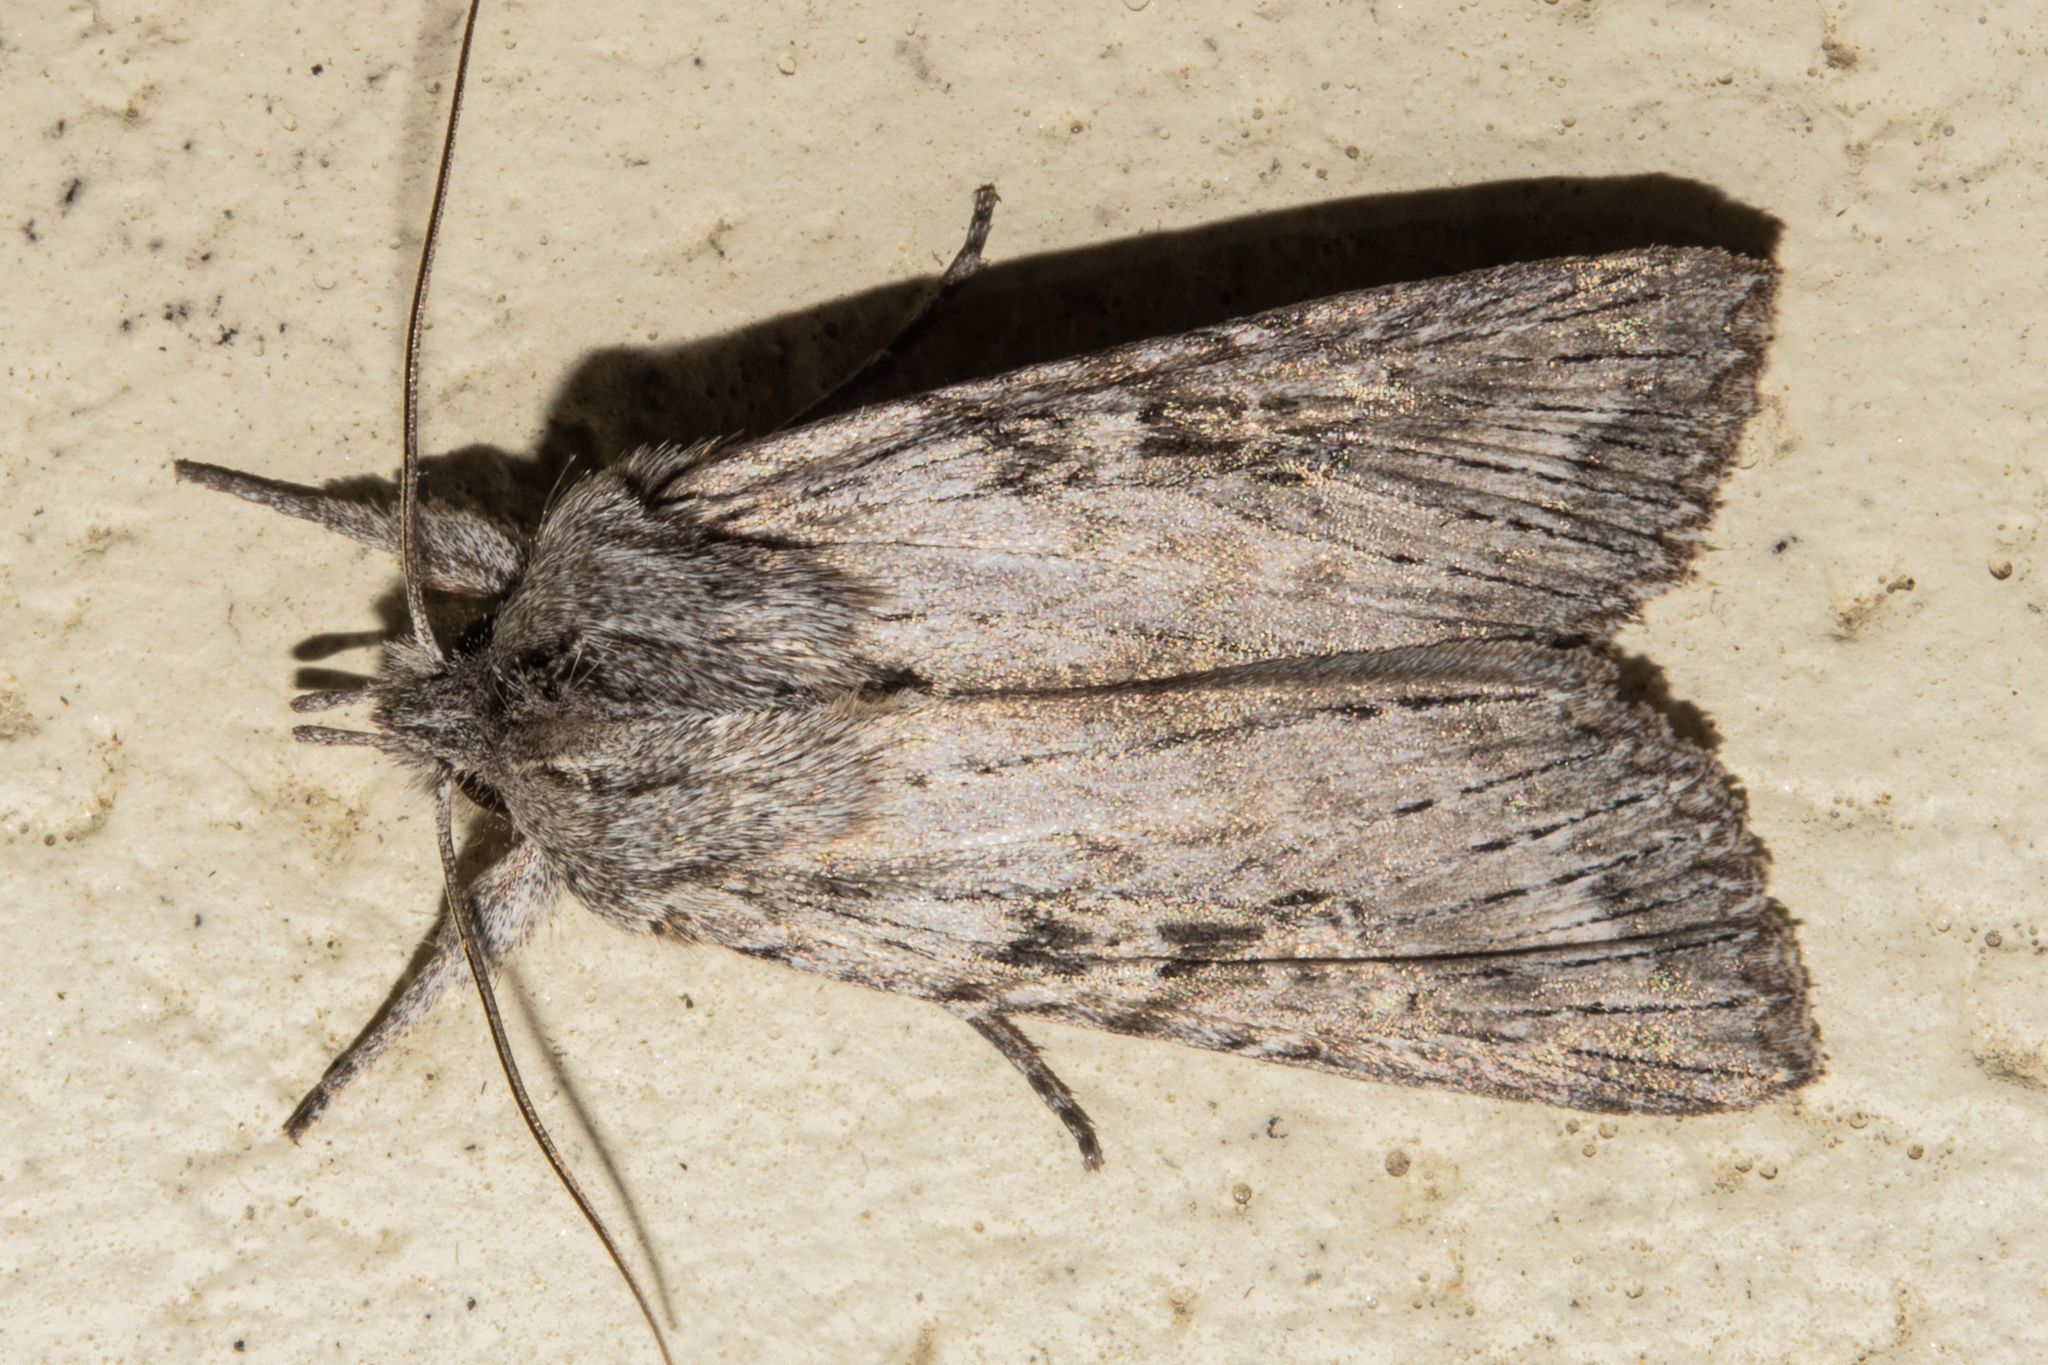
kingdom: Animalia
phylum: Arthropoda
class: Insecta
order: Lepidoptera
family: Noctuidae
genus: Physetica
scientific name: Physetica phricias
